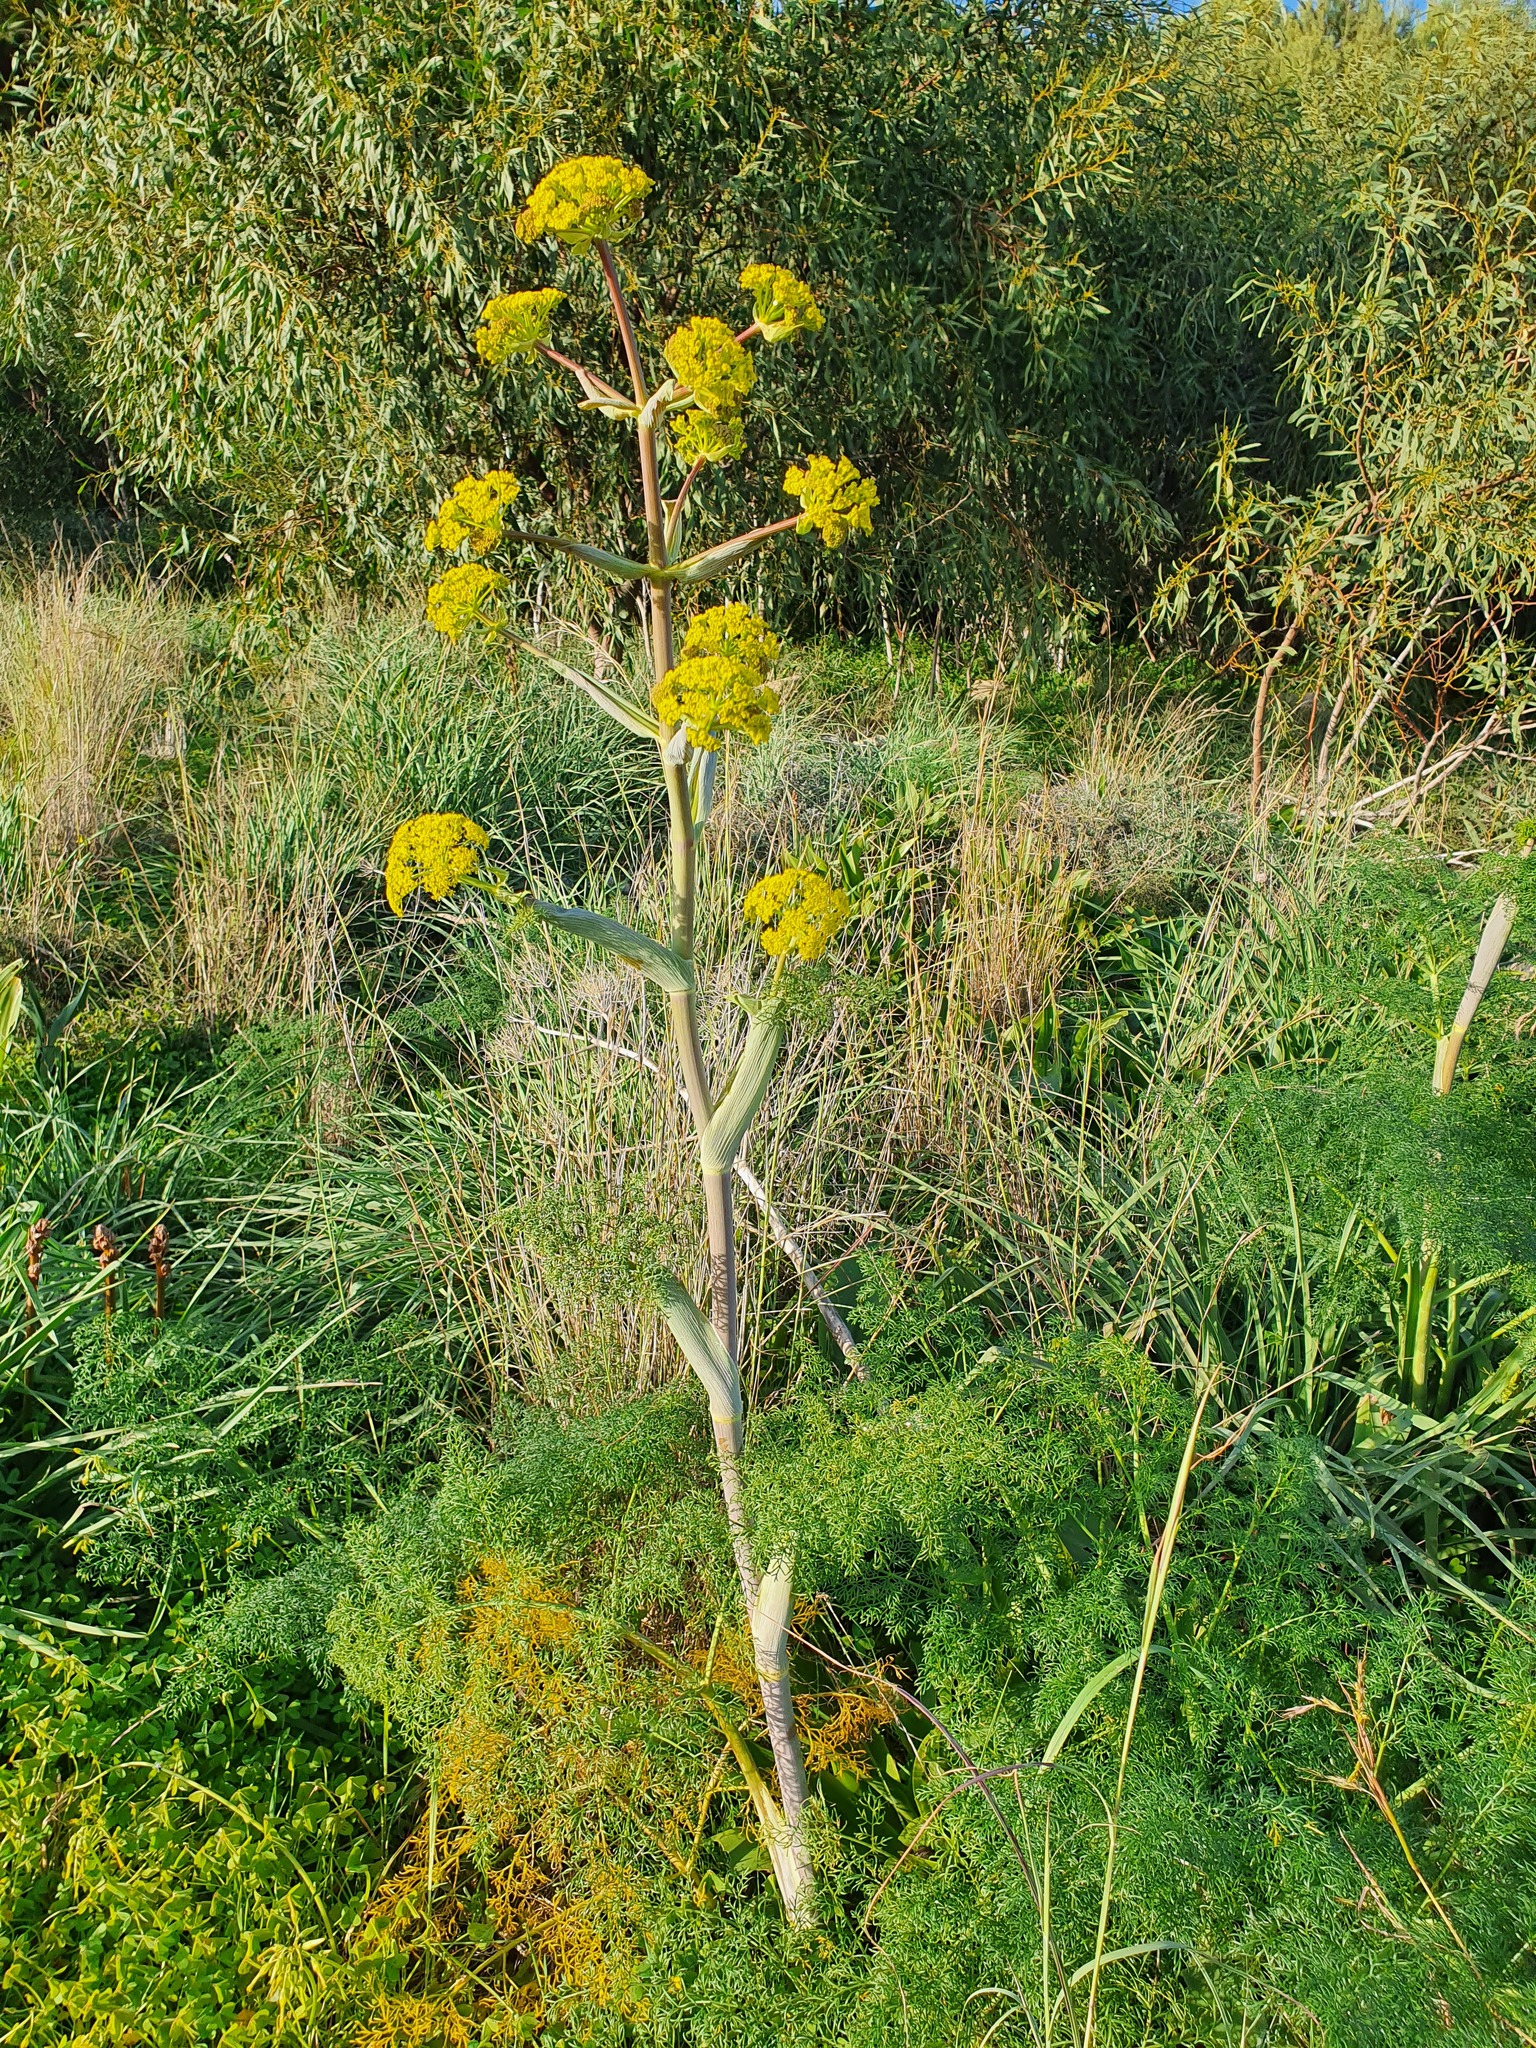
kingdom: Plantae
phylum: Tracheophyta
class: Magnoliopsida
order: Apiales
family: Apiaceae
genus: Ferula
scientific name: Ferula melitensis
